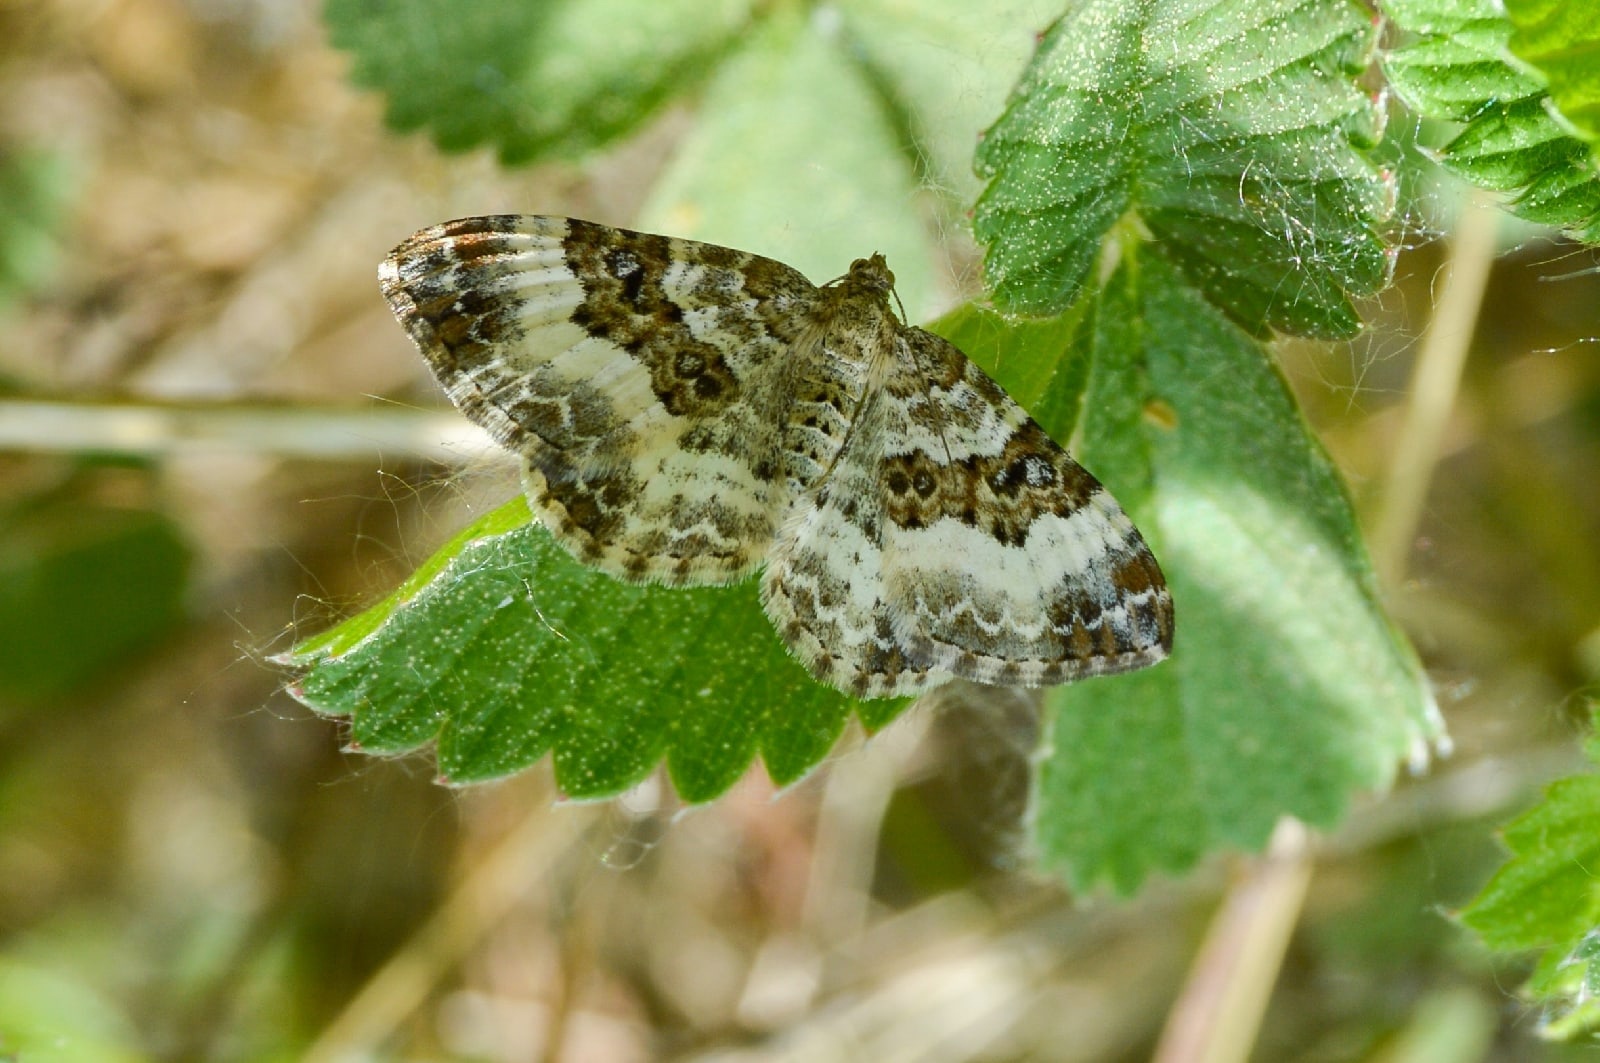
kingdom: Animalia
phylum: Arthropoda
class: Insecta
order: Lepidoptera
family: Geometridae
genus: Epirrhoe
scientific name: Epirrhoe alternata
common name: Common carpet
